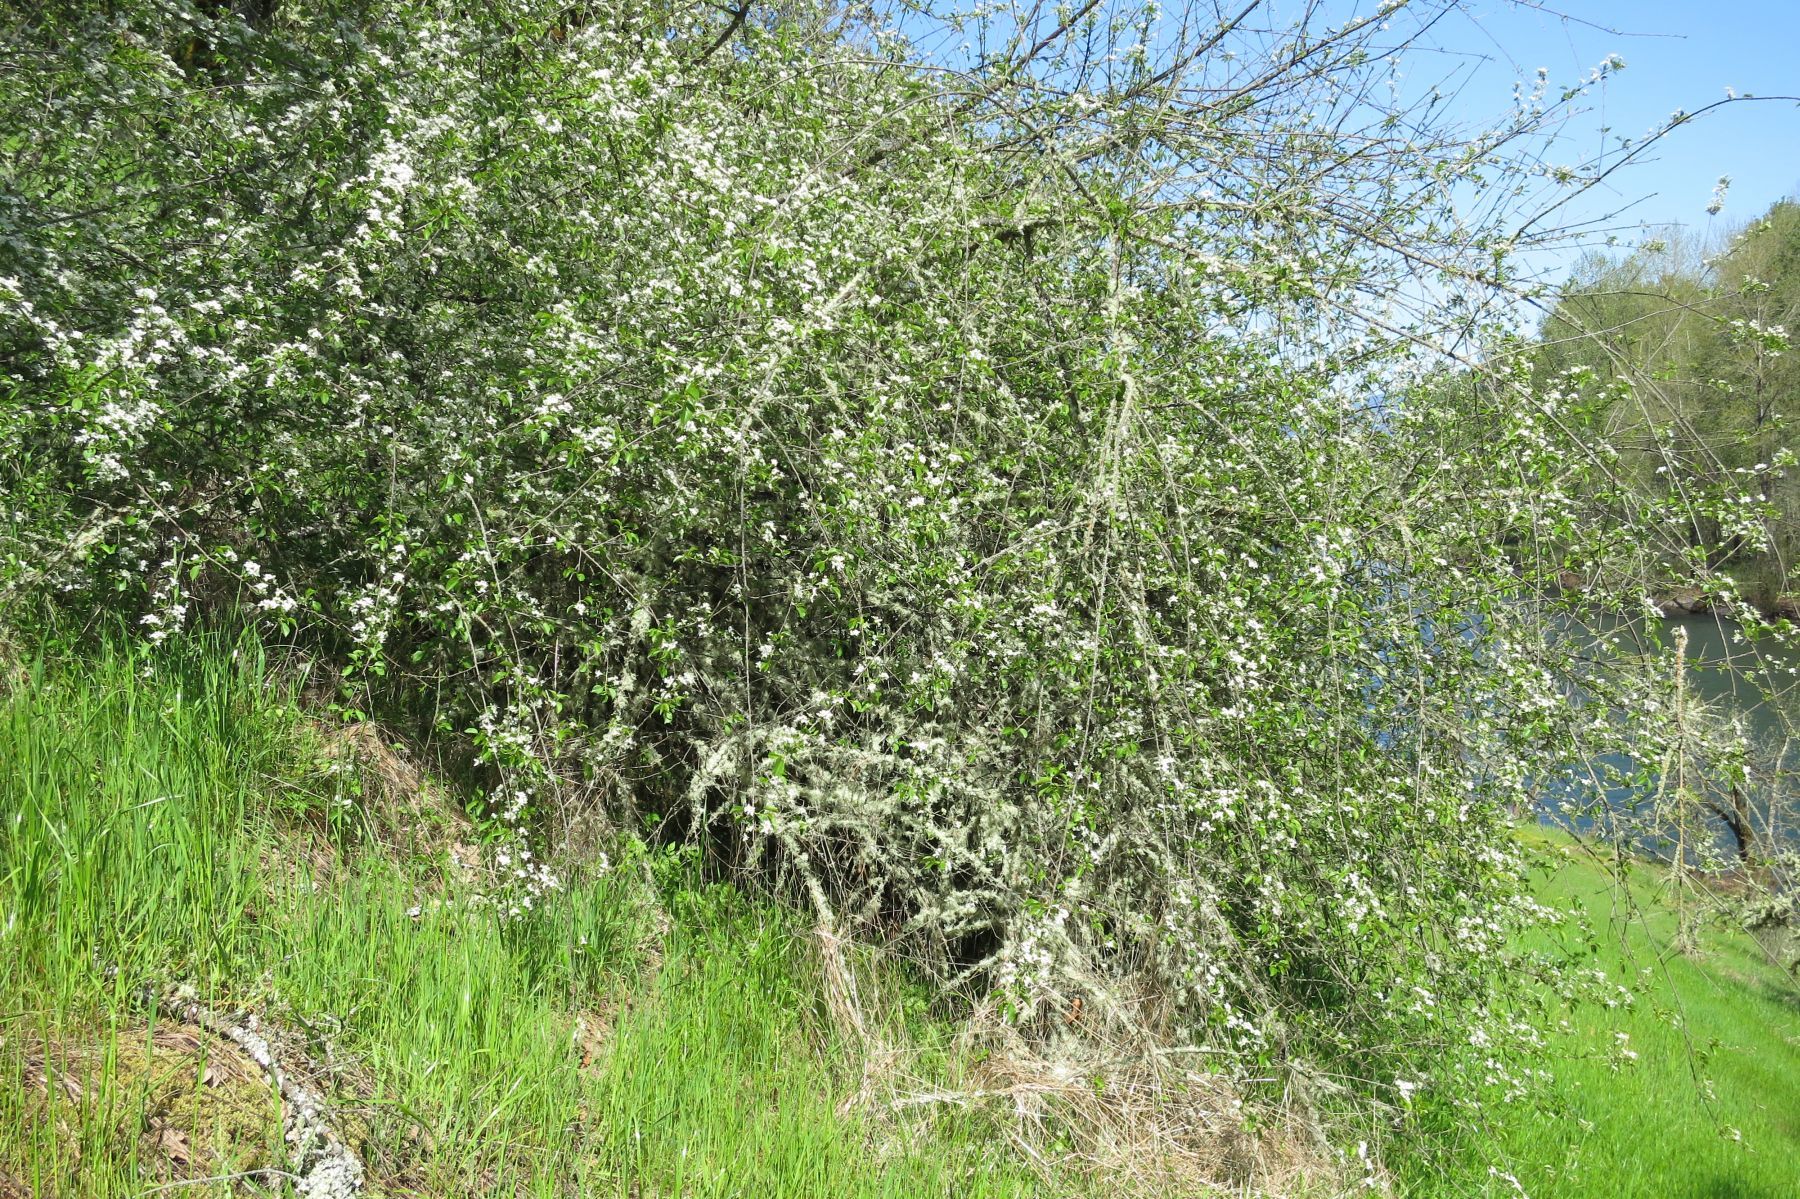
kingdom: Plantae
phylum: Tracheophyta
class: Magnoliopsida
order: Rosales
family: Rosaceae
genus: Prunus
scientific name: Prunus mahaleb
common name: Mahaleb cherry
